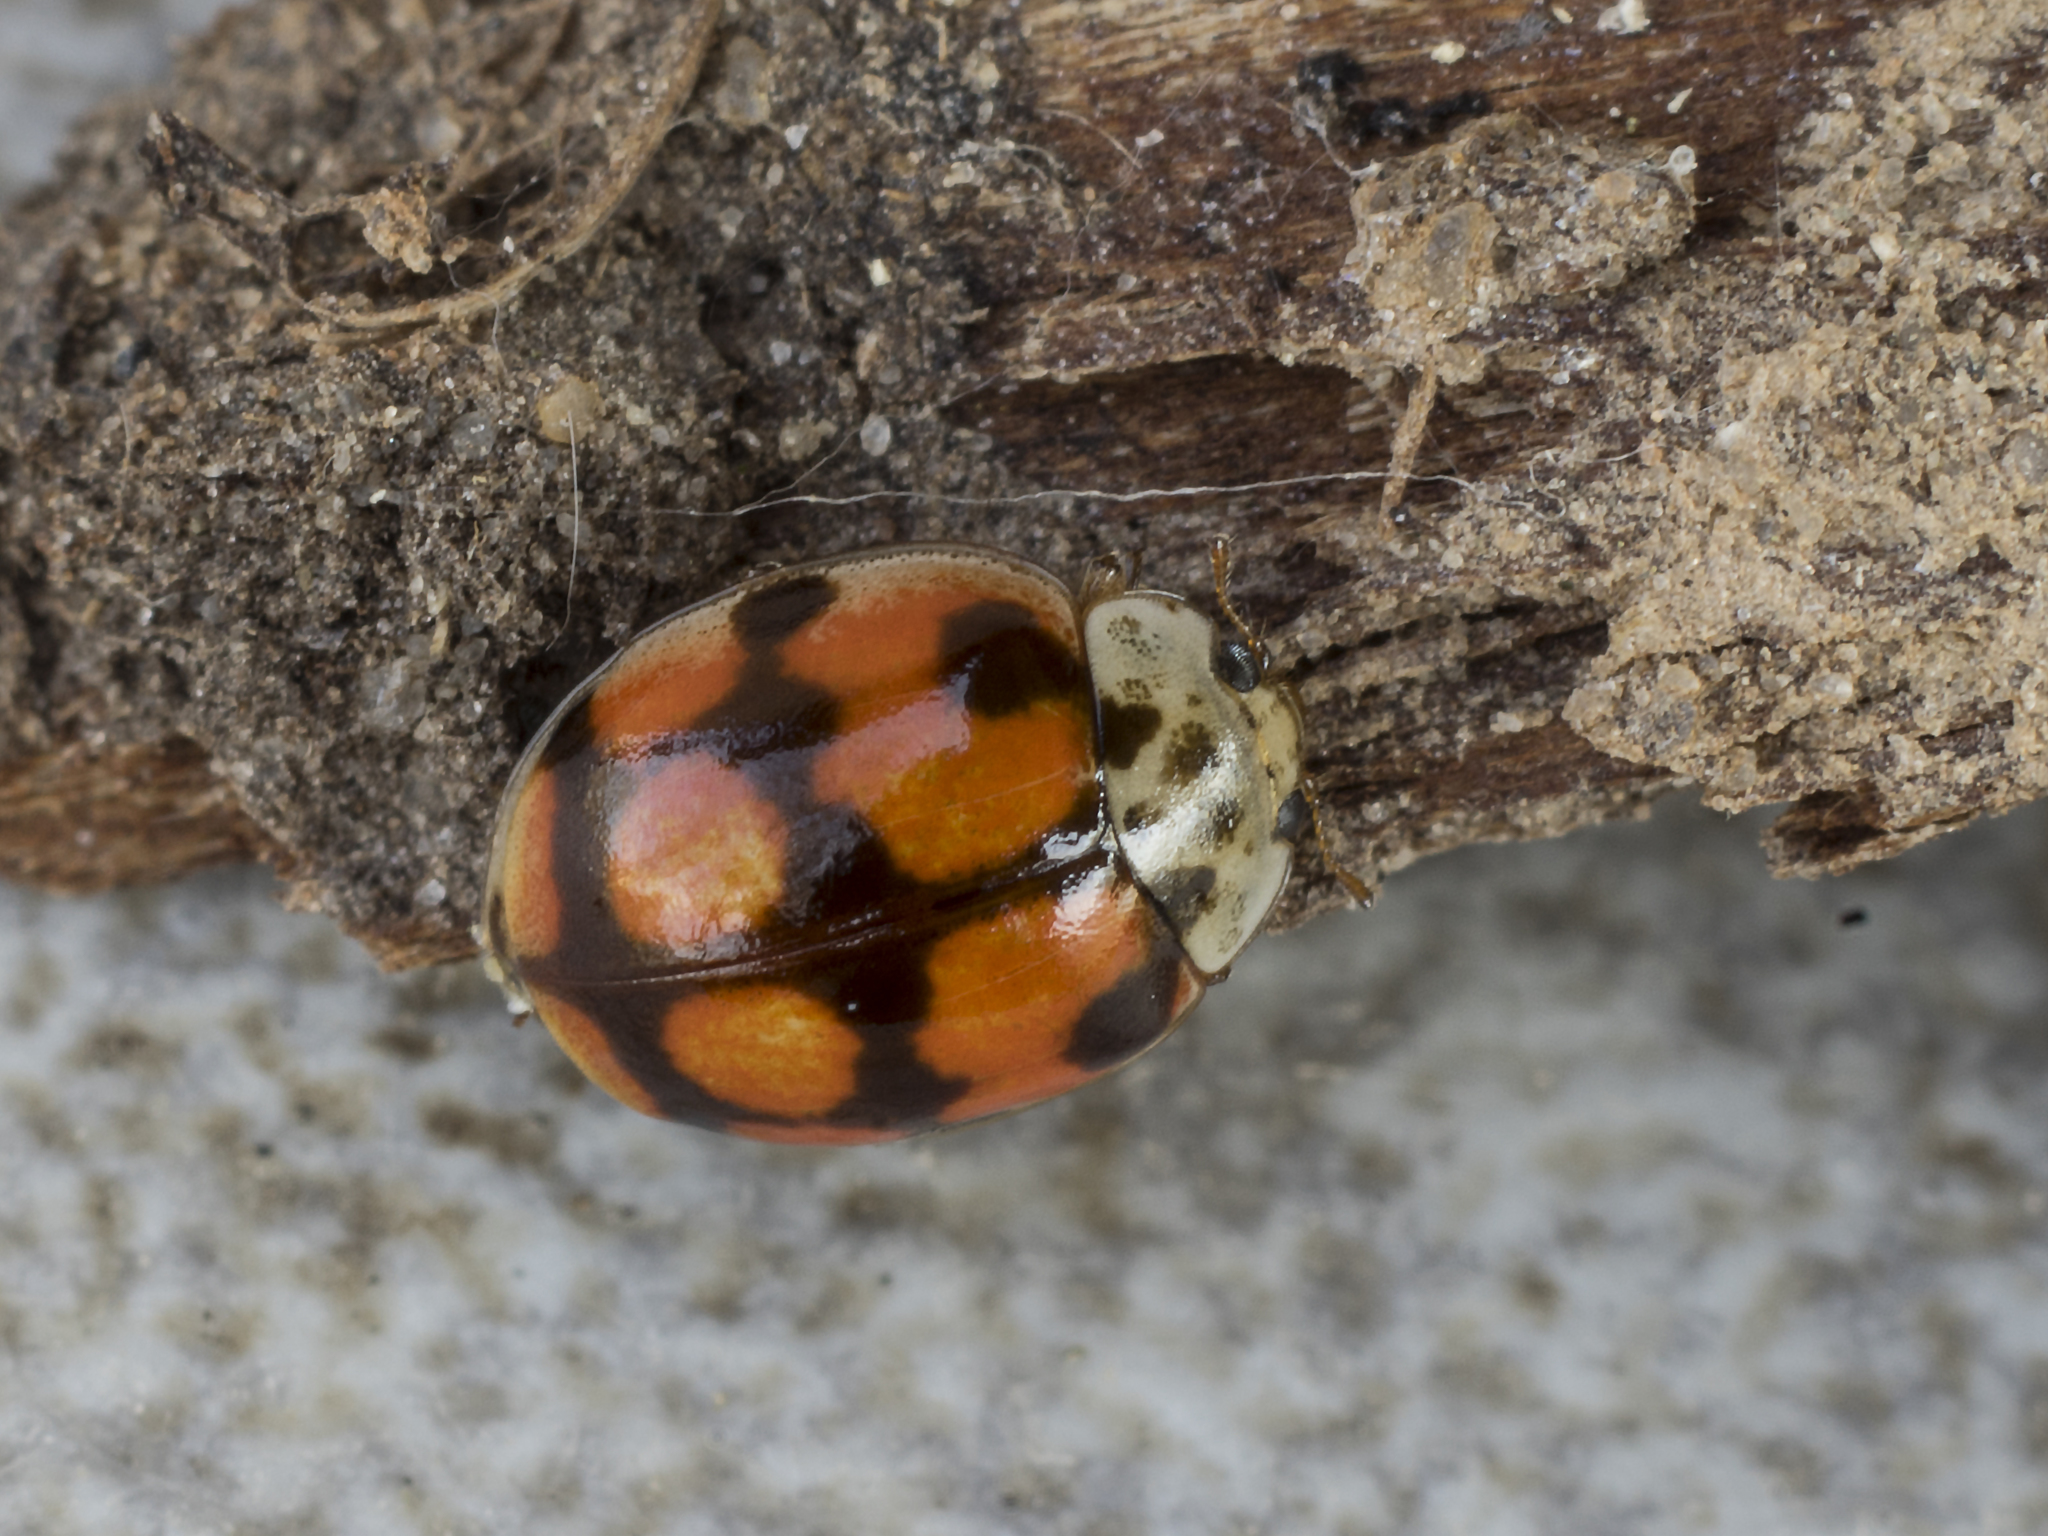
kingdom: Animalia
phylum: Arthropoda
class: Insecta
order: Coleoptera
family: Coccinellidae
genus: Adalia
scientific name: Adalia decempunctata
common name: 10-spot ladybird
